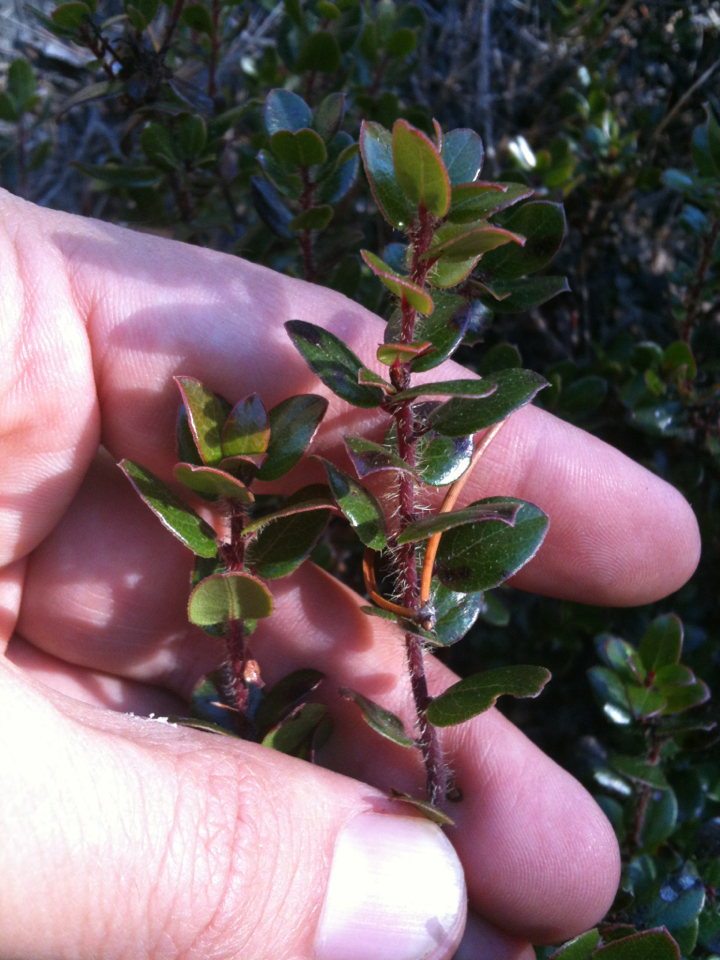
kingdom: Plantae
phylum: Tracheophyta
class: Magnoliopsida
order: Ericales
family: Ericaceae
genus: Arctostaphylos
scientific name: Arctostaphylos nummularia
